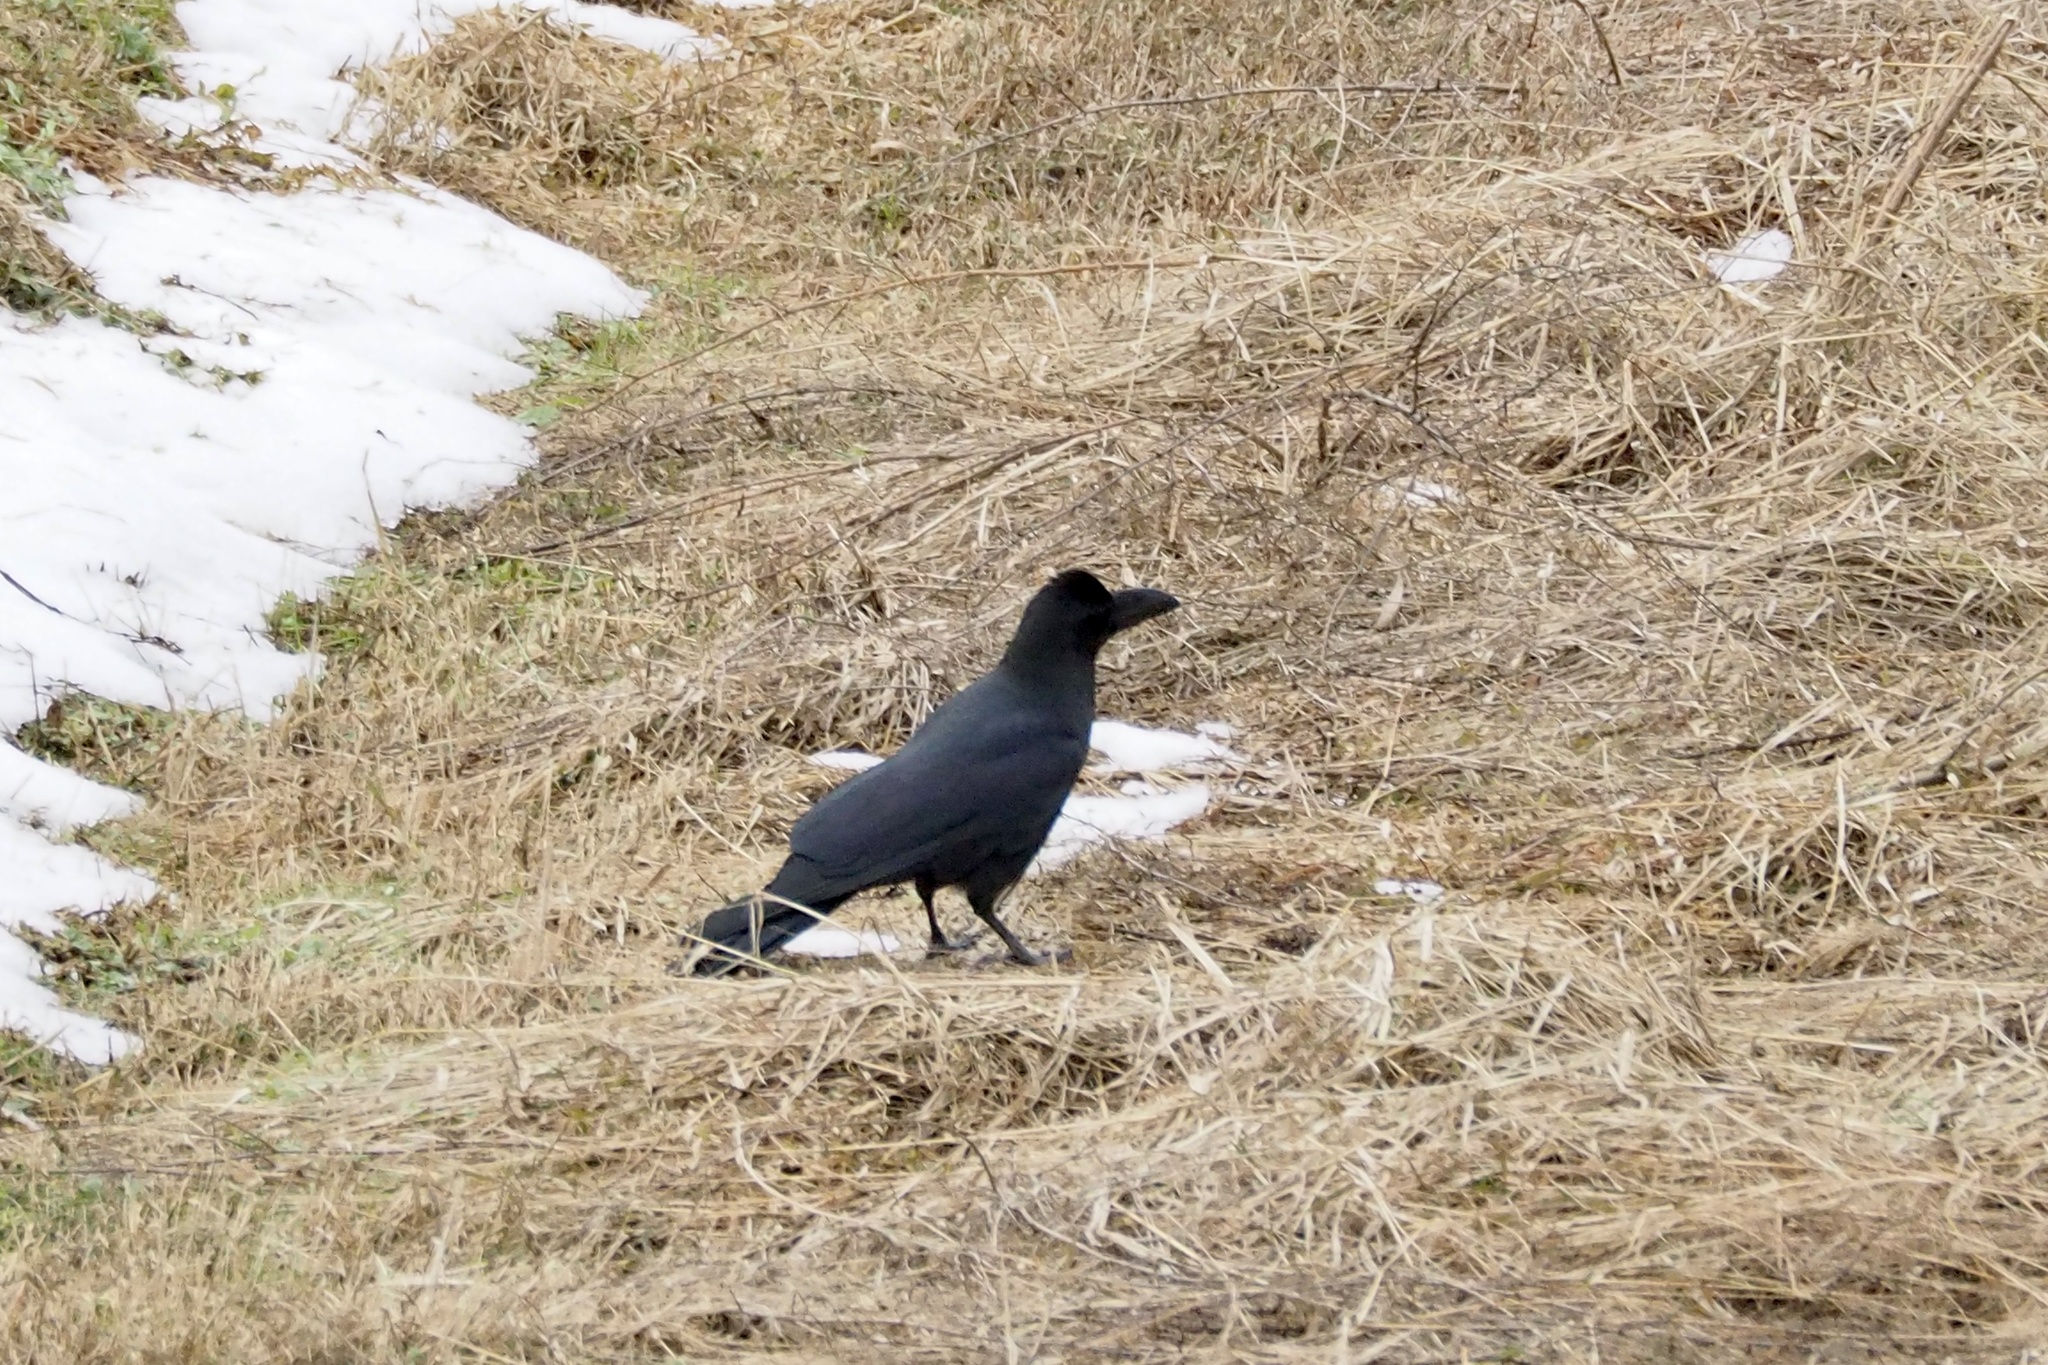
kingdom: Animalia
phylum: Chordata
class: Aves
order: Passeriformes
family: Corvidae
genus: Corvus
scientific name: Corvus macrorhynchos
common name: Large-billed crow
